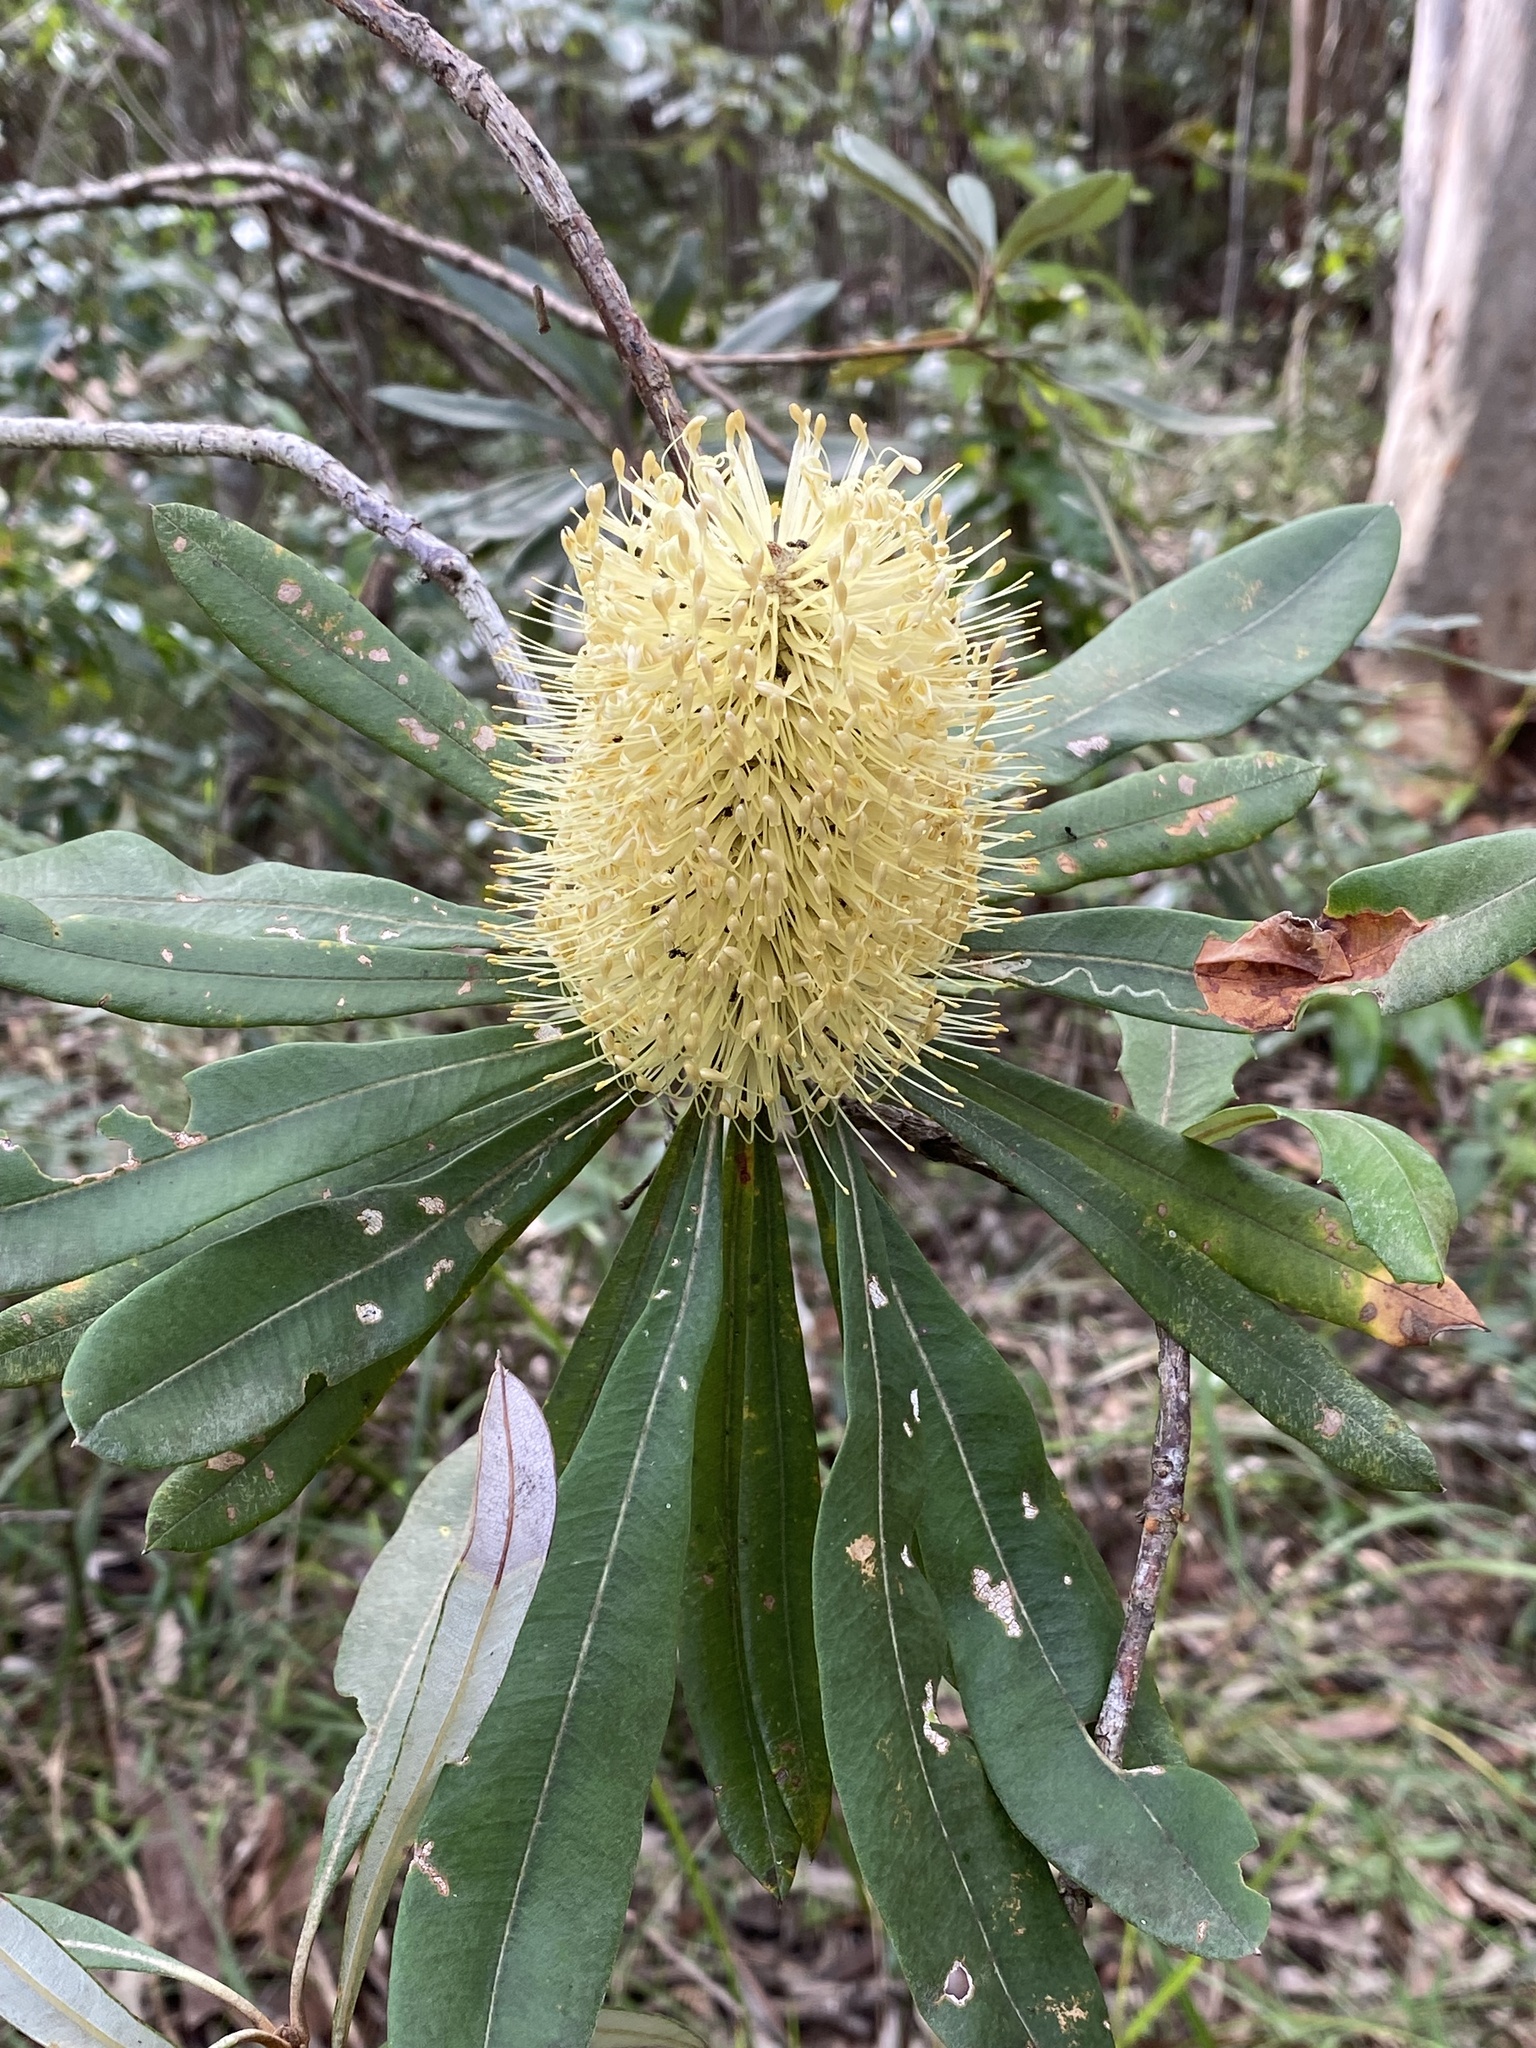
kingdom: Plantae
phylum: Tracheophyta
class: Magnoliopsida
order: Proteales
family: Proteaceae
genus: Banksia
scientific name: Banksia integrifolia
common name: White-honeysuckle
